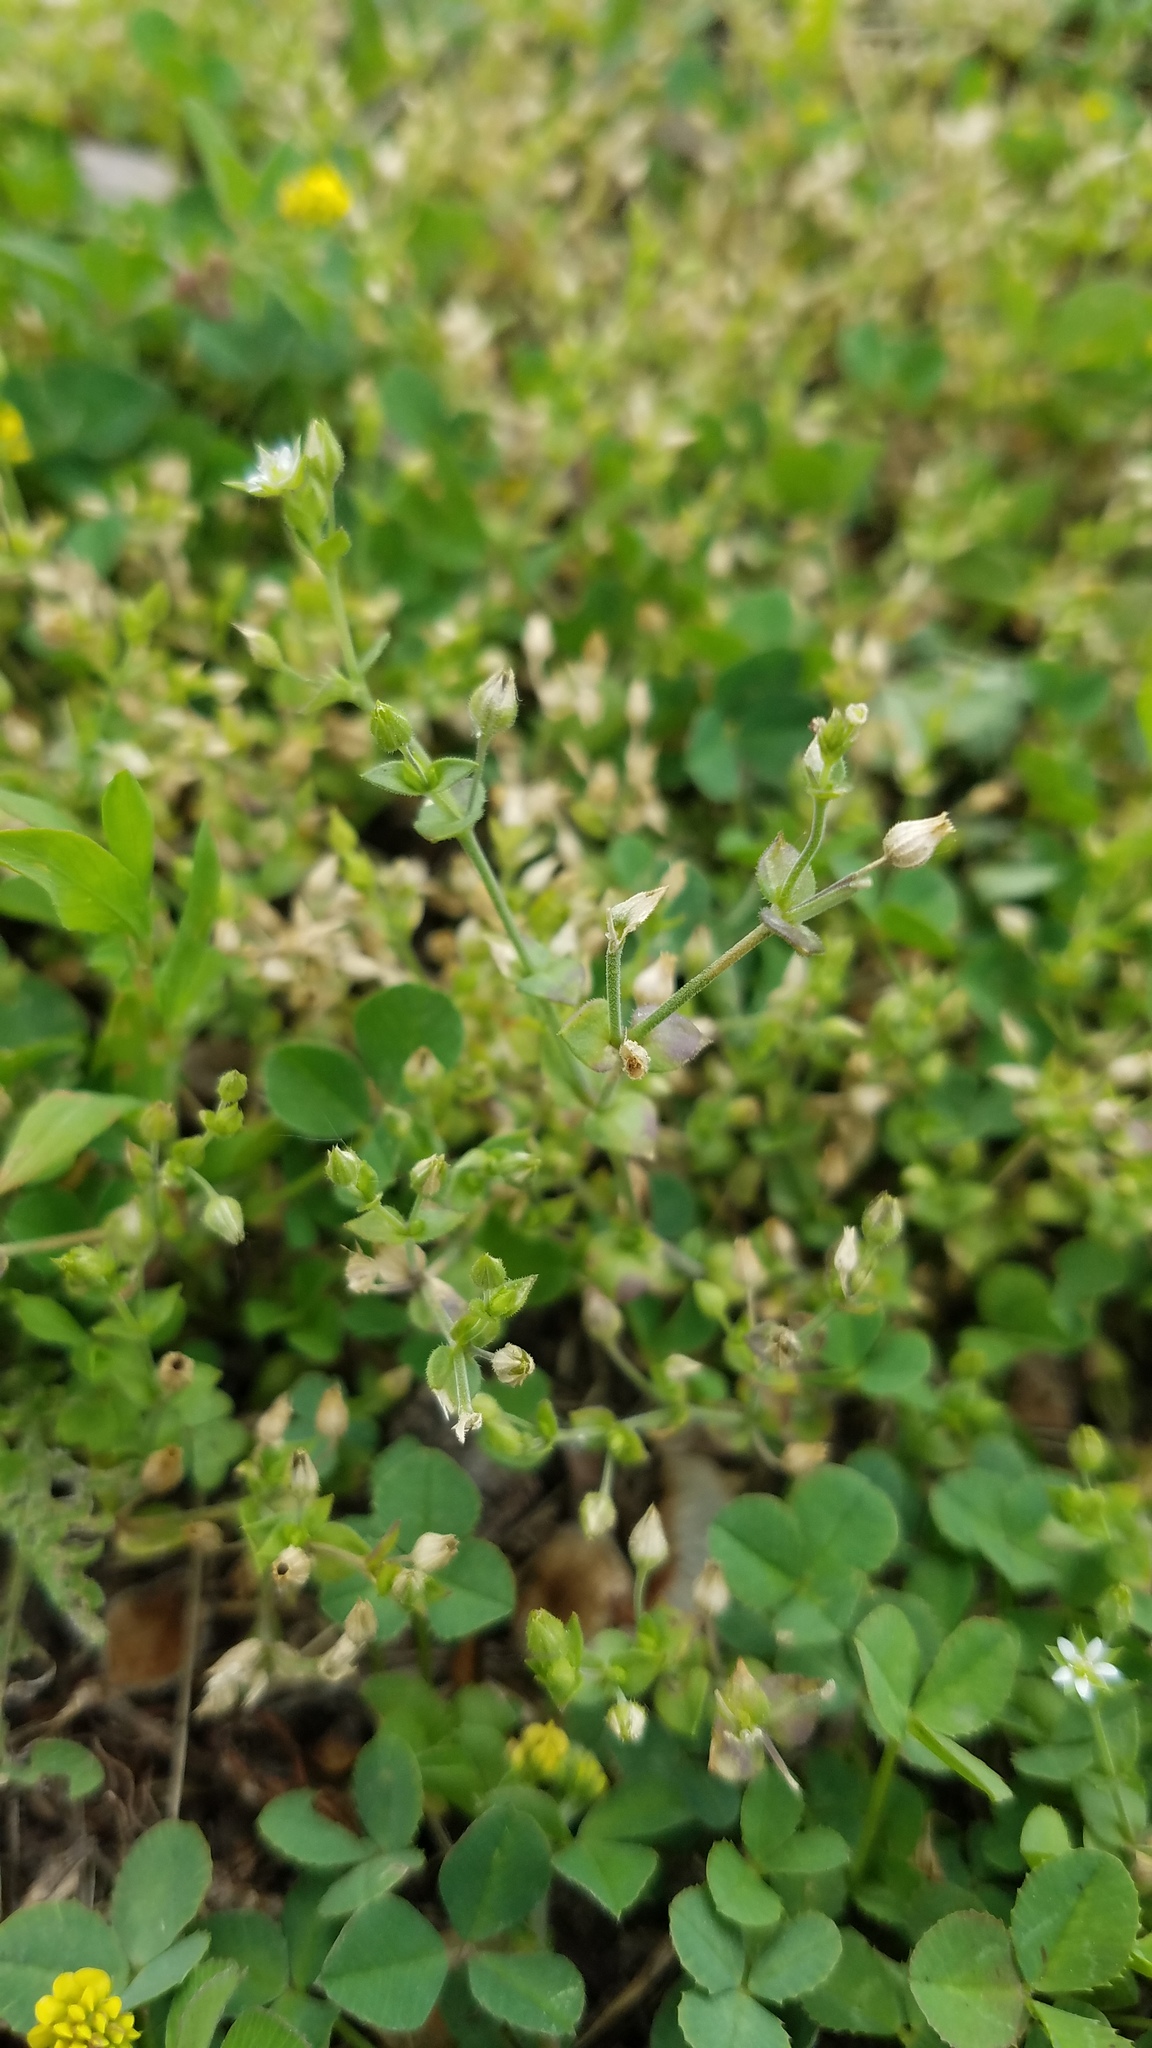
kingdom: Plantae
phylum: Tracheophyta
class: Magnoliopsida
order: Caryophyllales
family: Caryophyllaceae
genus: Arenaria
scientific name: Arenaria serpyllifolia
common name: Thyme-leaved sandwort
